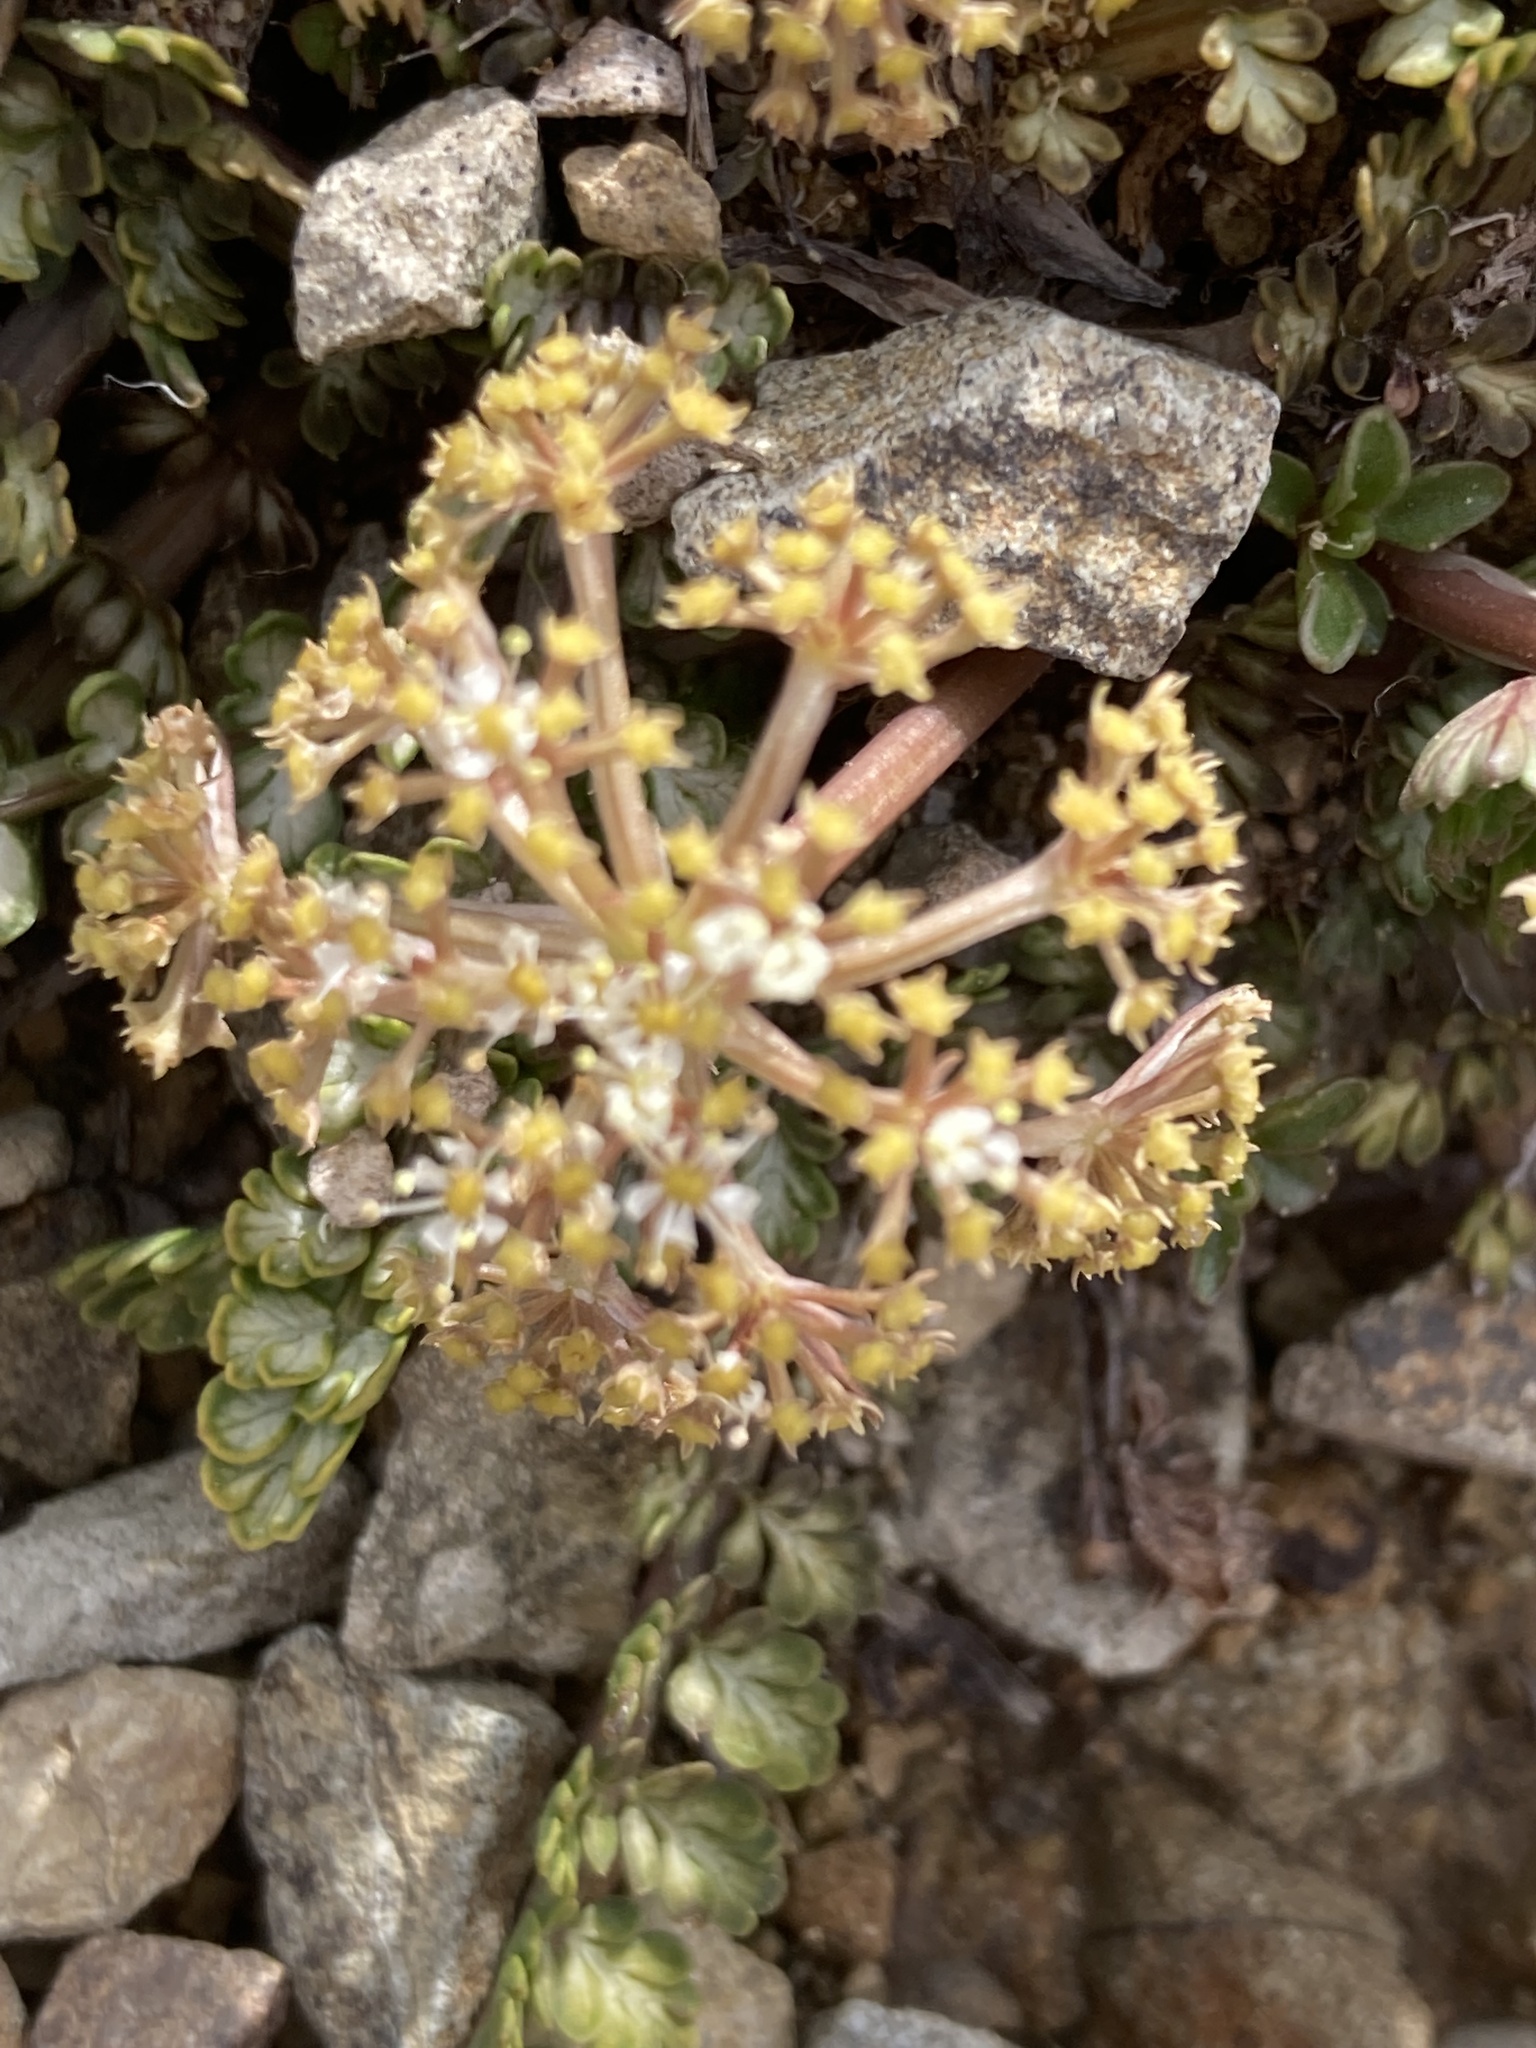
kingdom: Plantae
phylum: Tracheophyta
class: Magnoliopsida
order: Apiales
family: Apiaceae
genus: Anisotome
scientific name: Anisotome flexuosa
